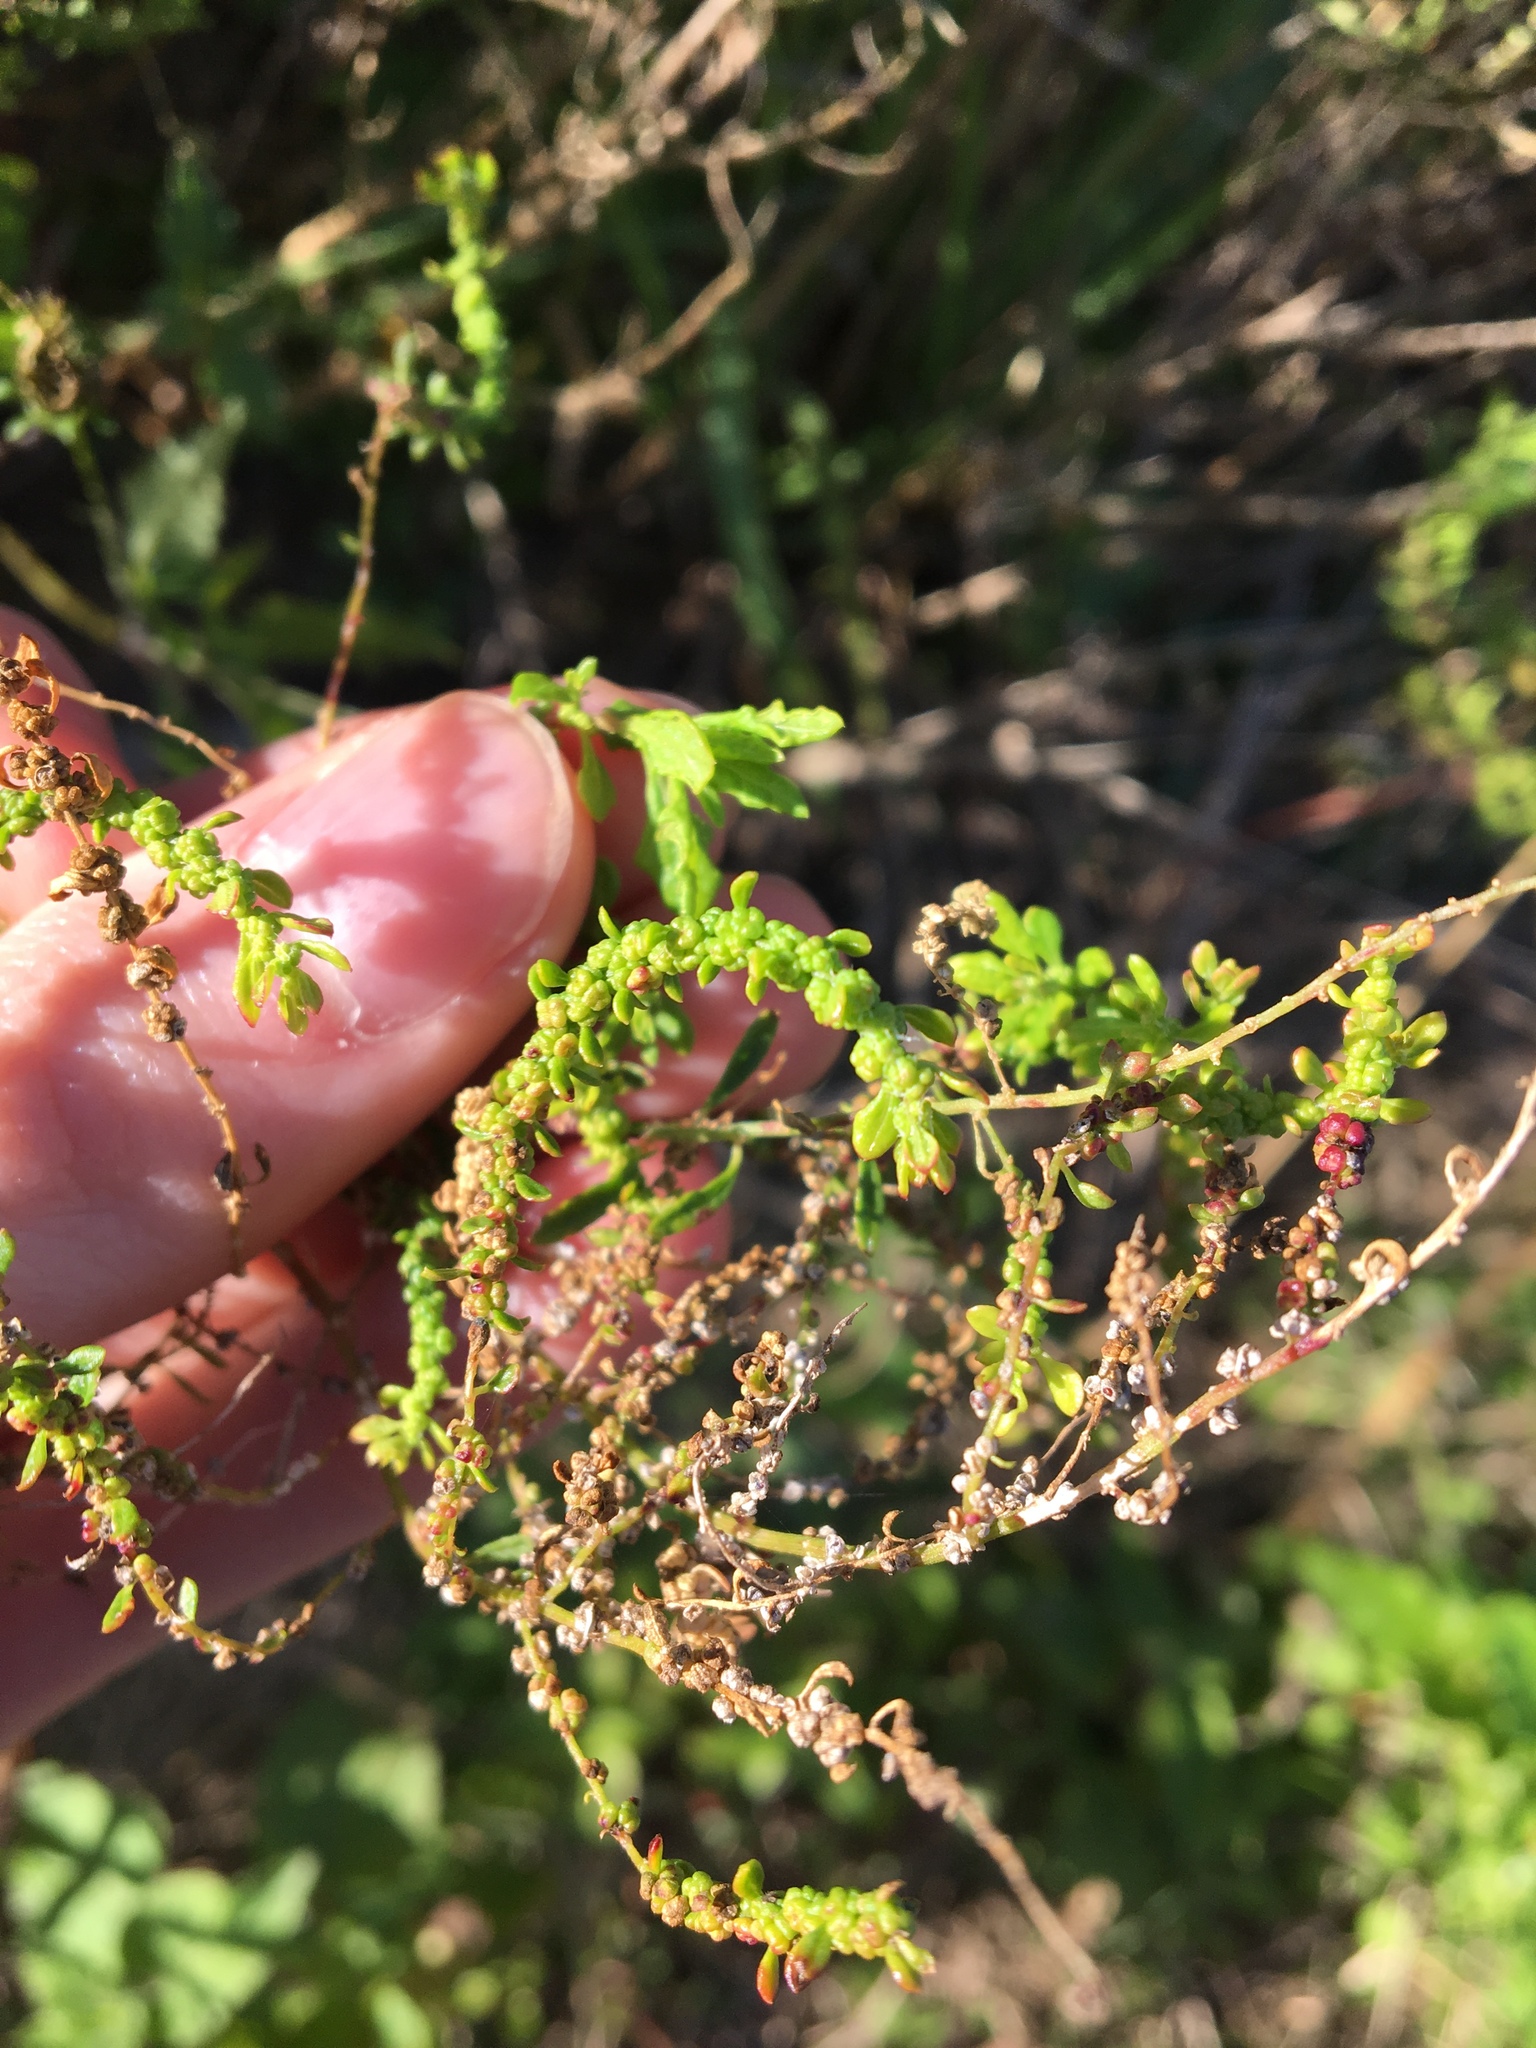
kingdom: Plantae
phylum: Tracheophyta
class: Magnoliopsida
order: Caryophyllales
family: Amaranthaceae
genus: Suaeda
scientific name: Suaeda australis
